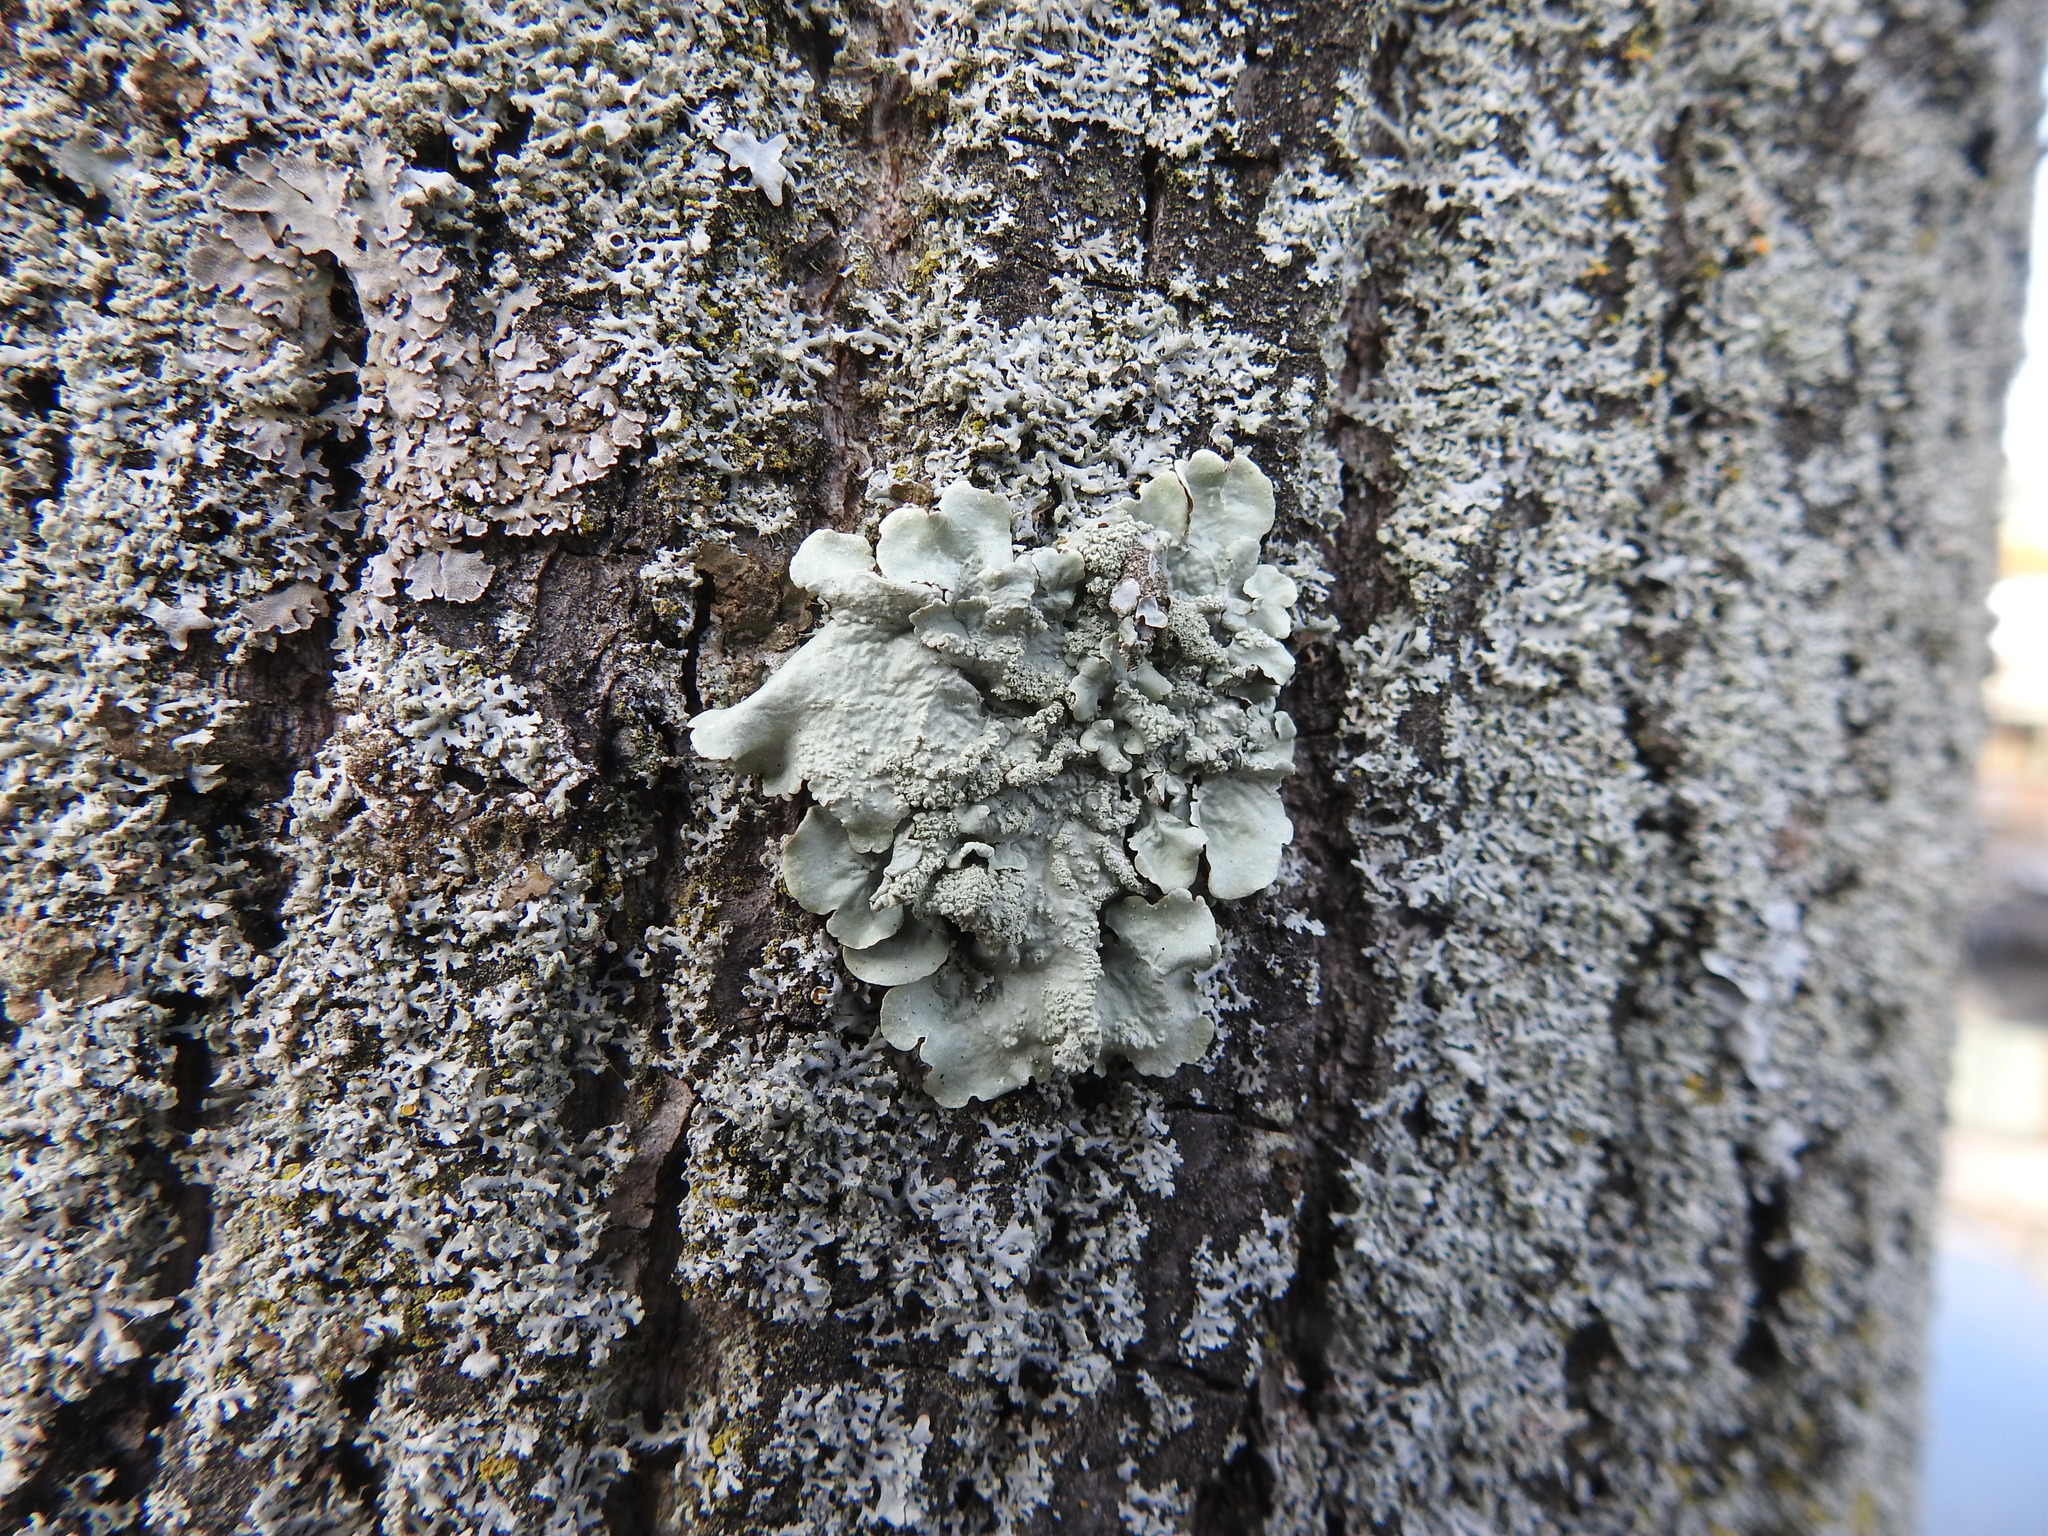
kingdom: Fungi
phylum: Ascomycota
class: Lecanoromycetes
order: Lecanorales
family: Parmeliaceae
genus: Flavoparmelia
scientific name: Flavoparmelia caperata
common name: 40-mile per hour lichen
